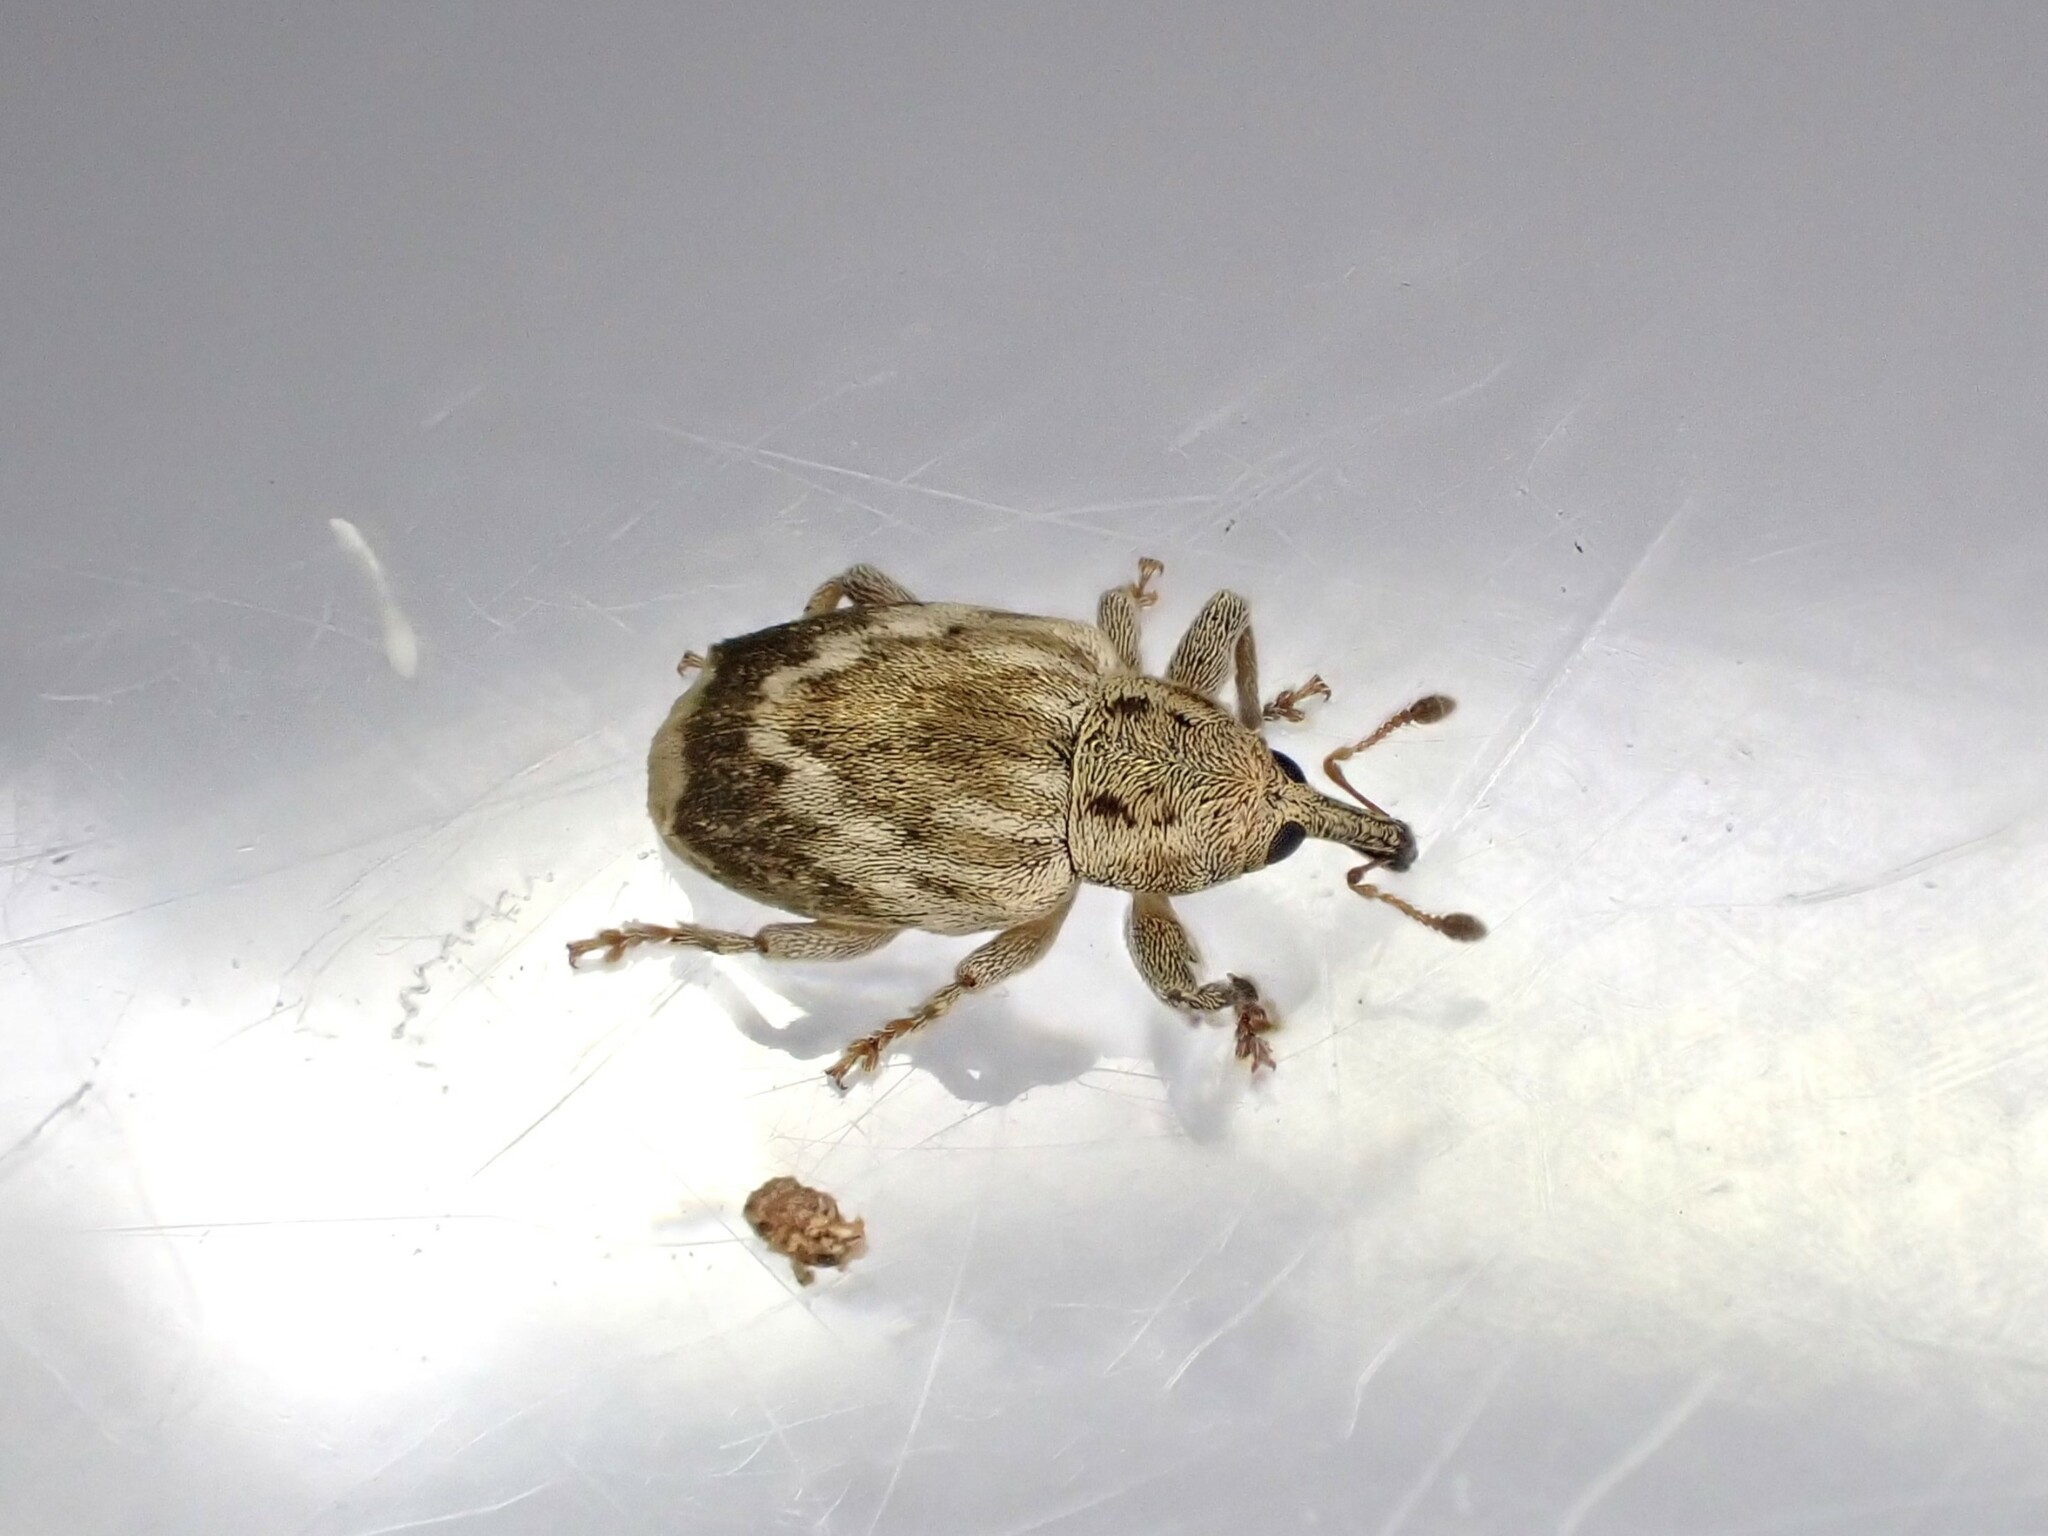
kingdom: Animalia
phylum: Arthropoda
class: Insecta
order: Coleoptera
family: Curculionidae
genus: Aneuma
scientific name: Aneuma compta
